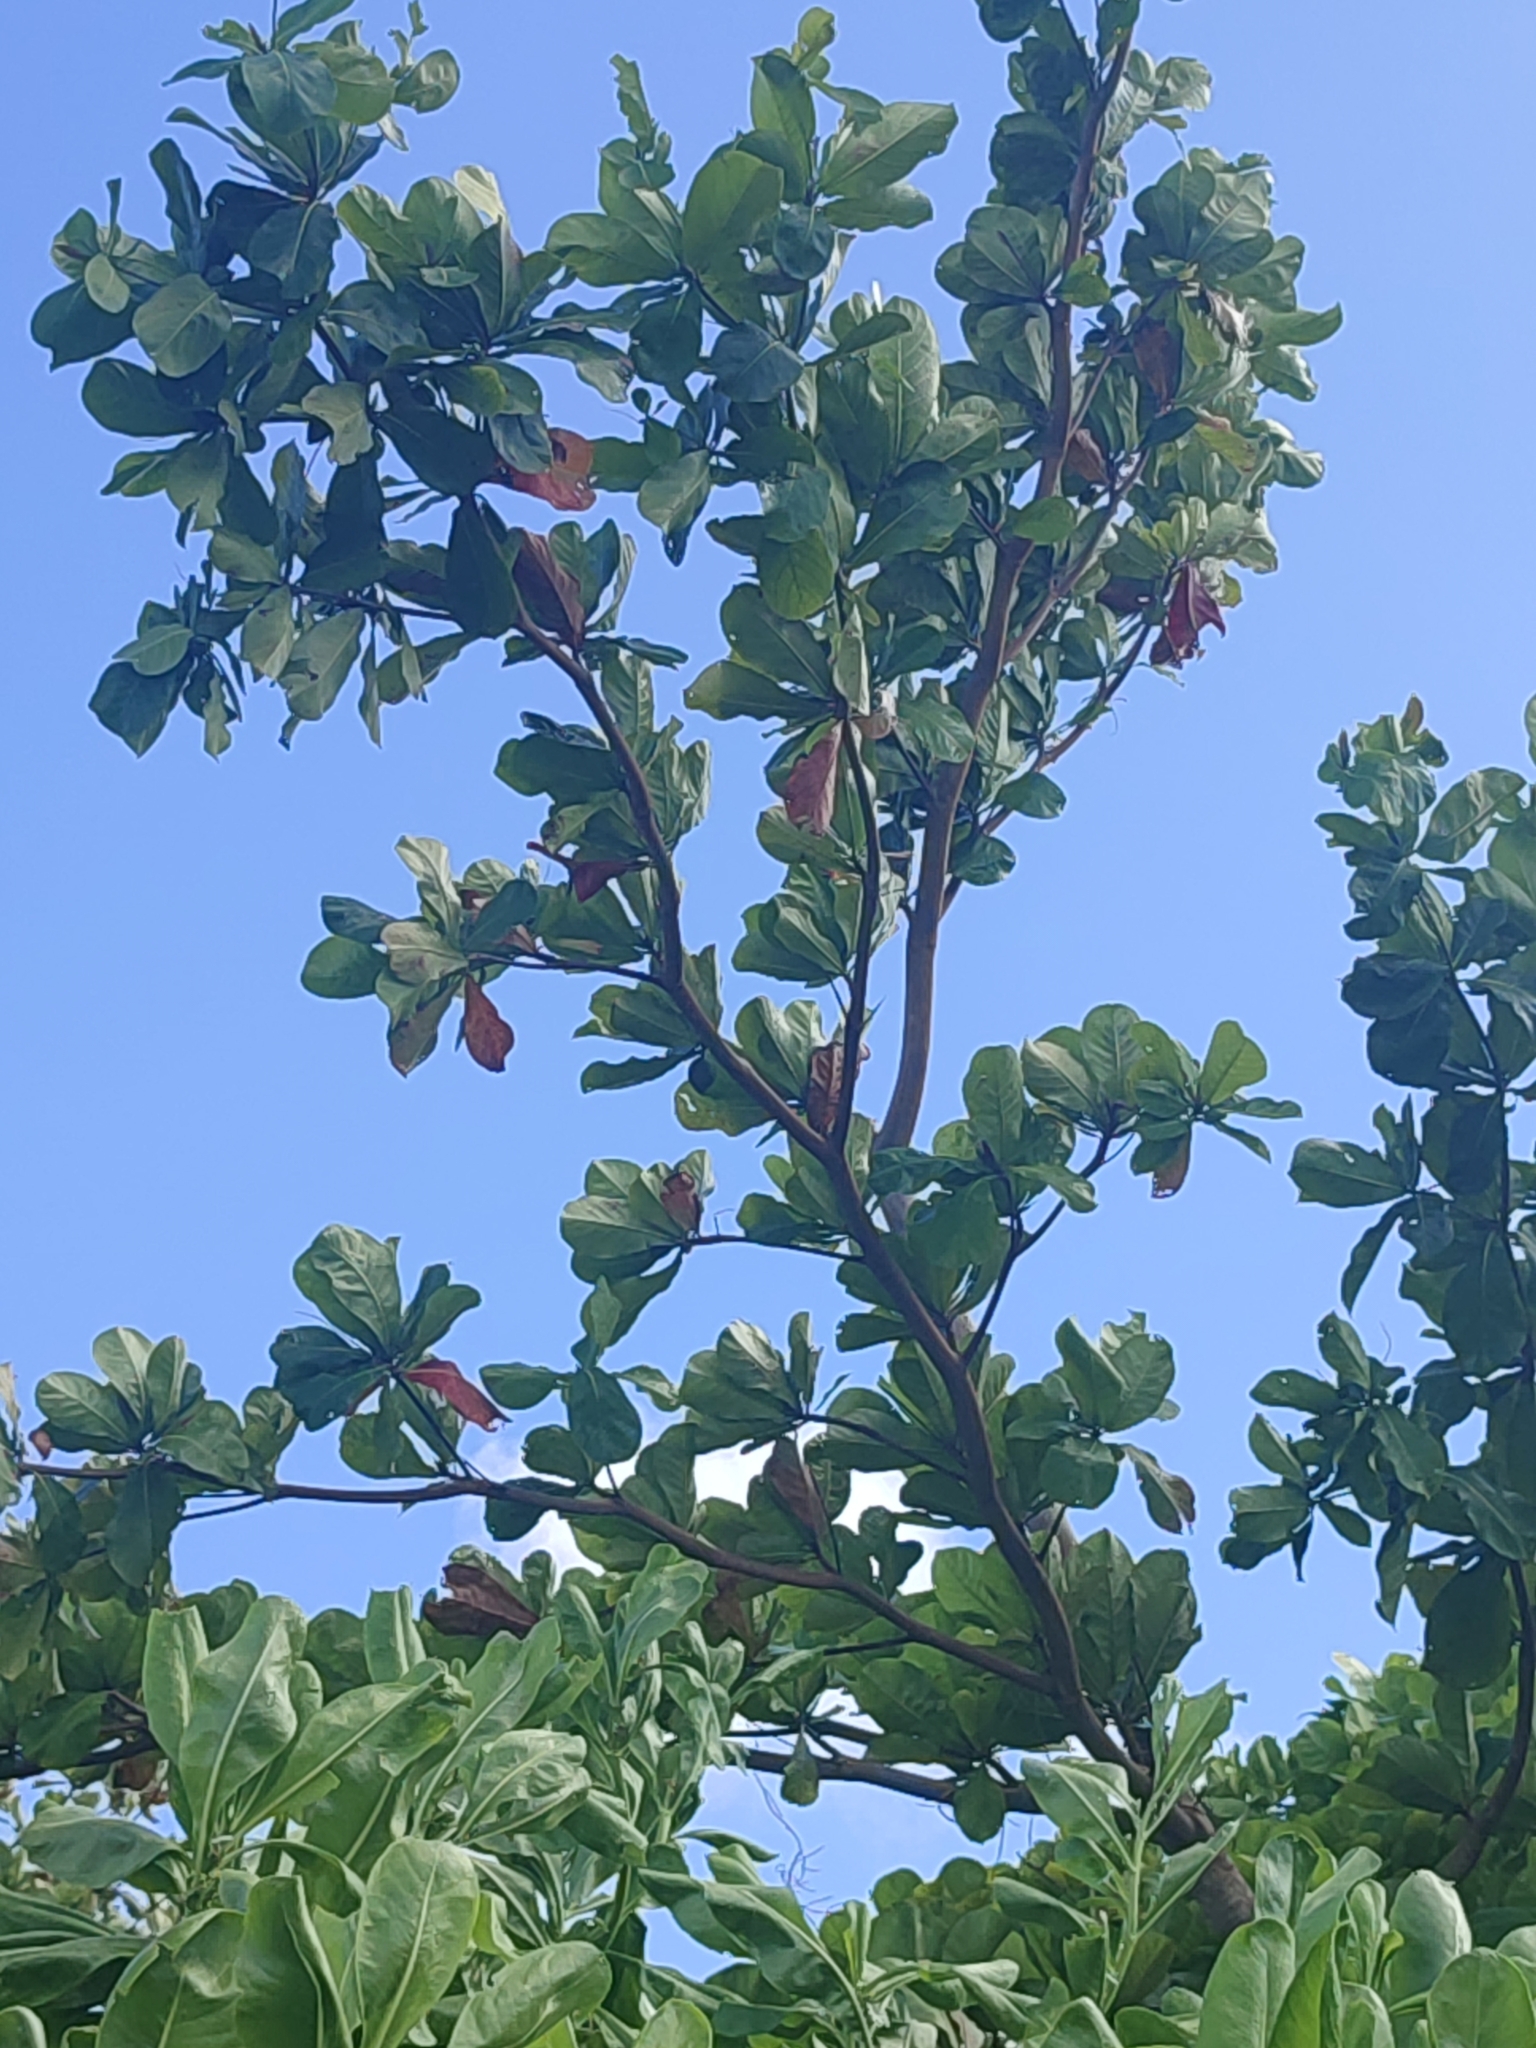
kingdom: Plantae
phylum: Tracheophyta
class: Magnoliopsida
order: Myrtales
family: Combretaceae
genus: Terminalia
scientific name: Terminalia catappa
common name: Tropical almond
